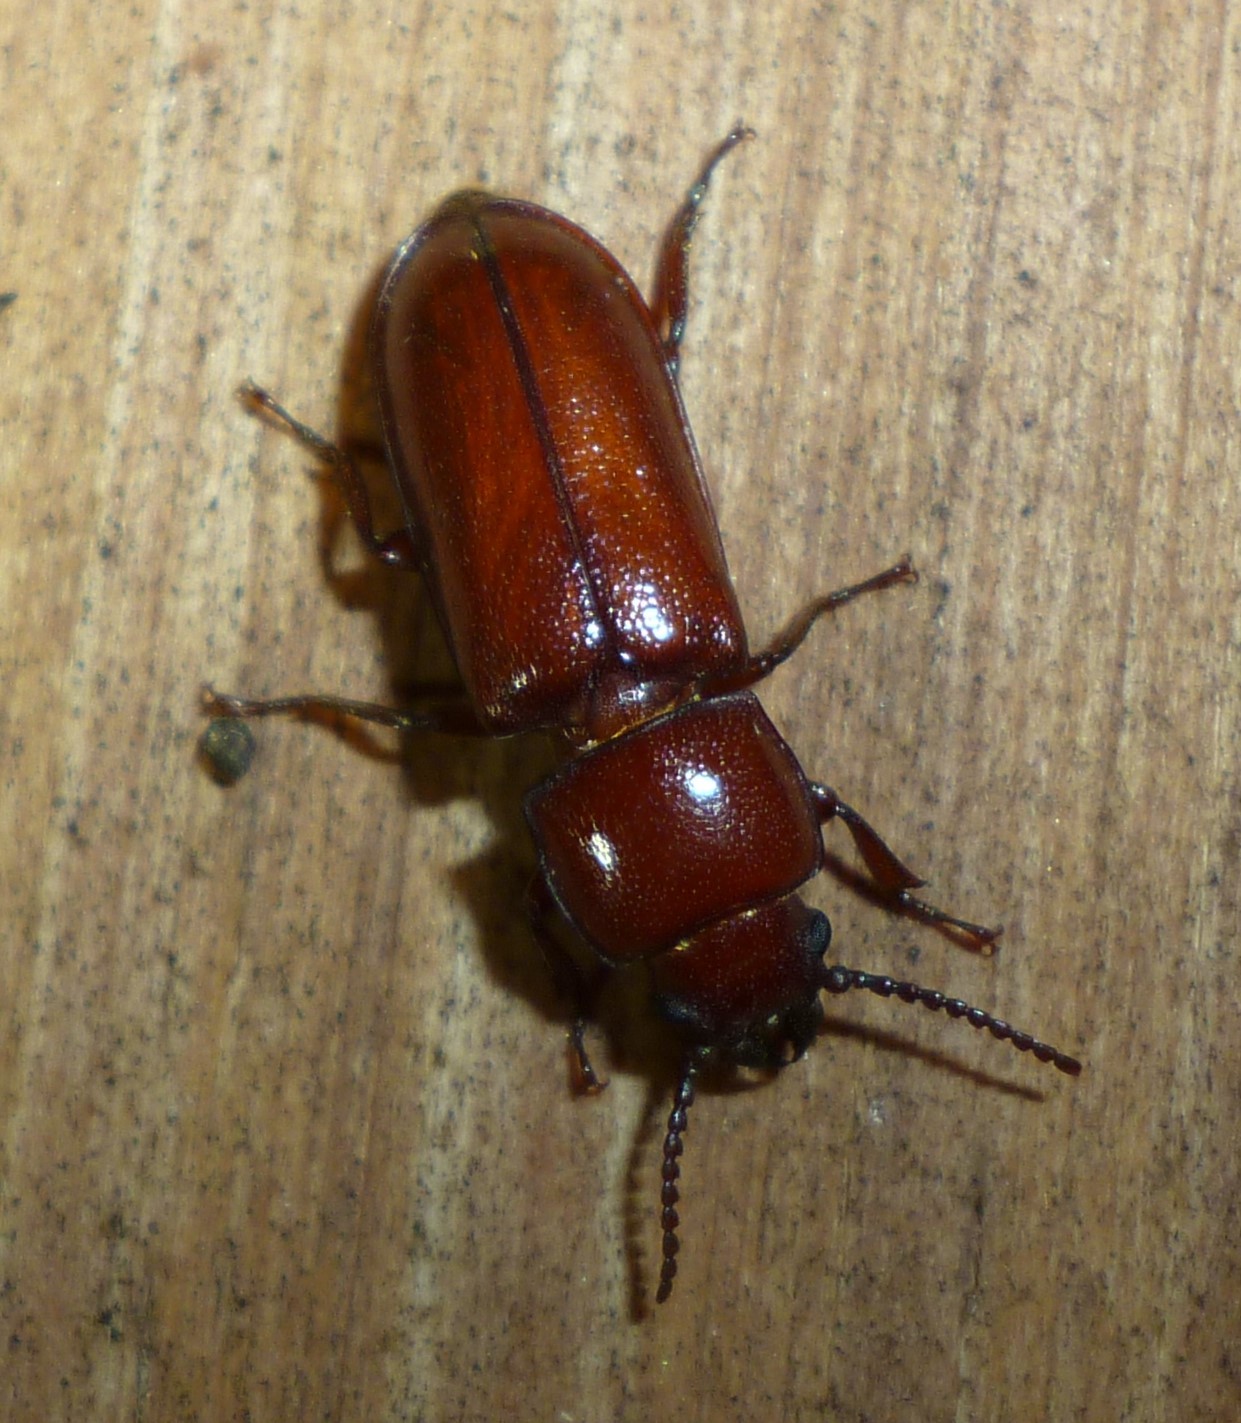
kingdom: Animalia
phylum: Arthropoda
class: Insecta
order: Coleoptera
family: Cerambycidae
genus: Neandra
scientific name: Neandra brunnea
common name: Pole borer
